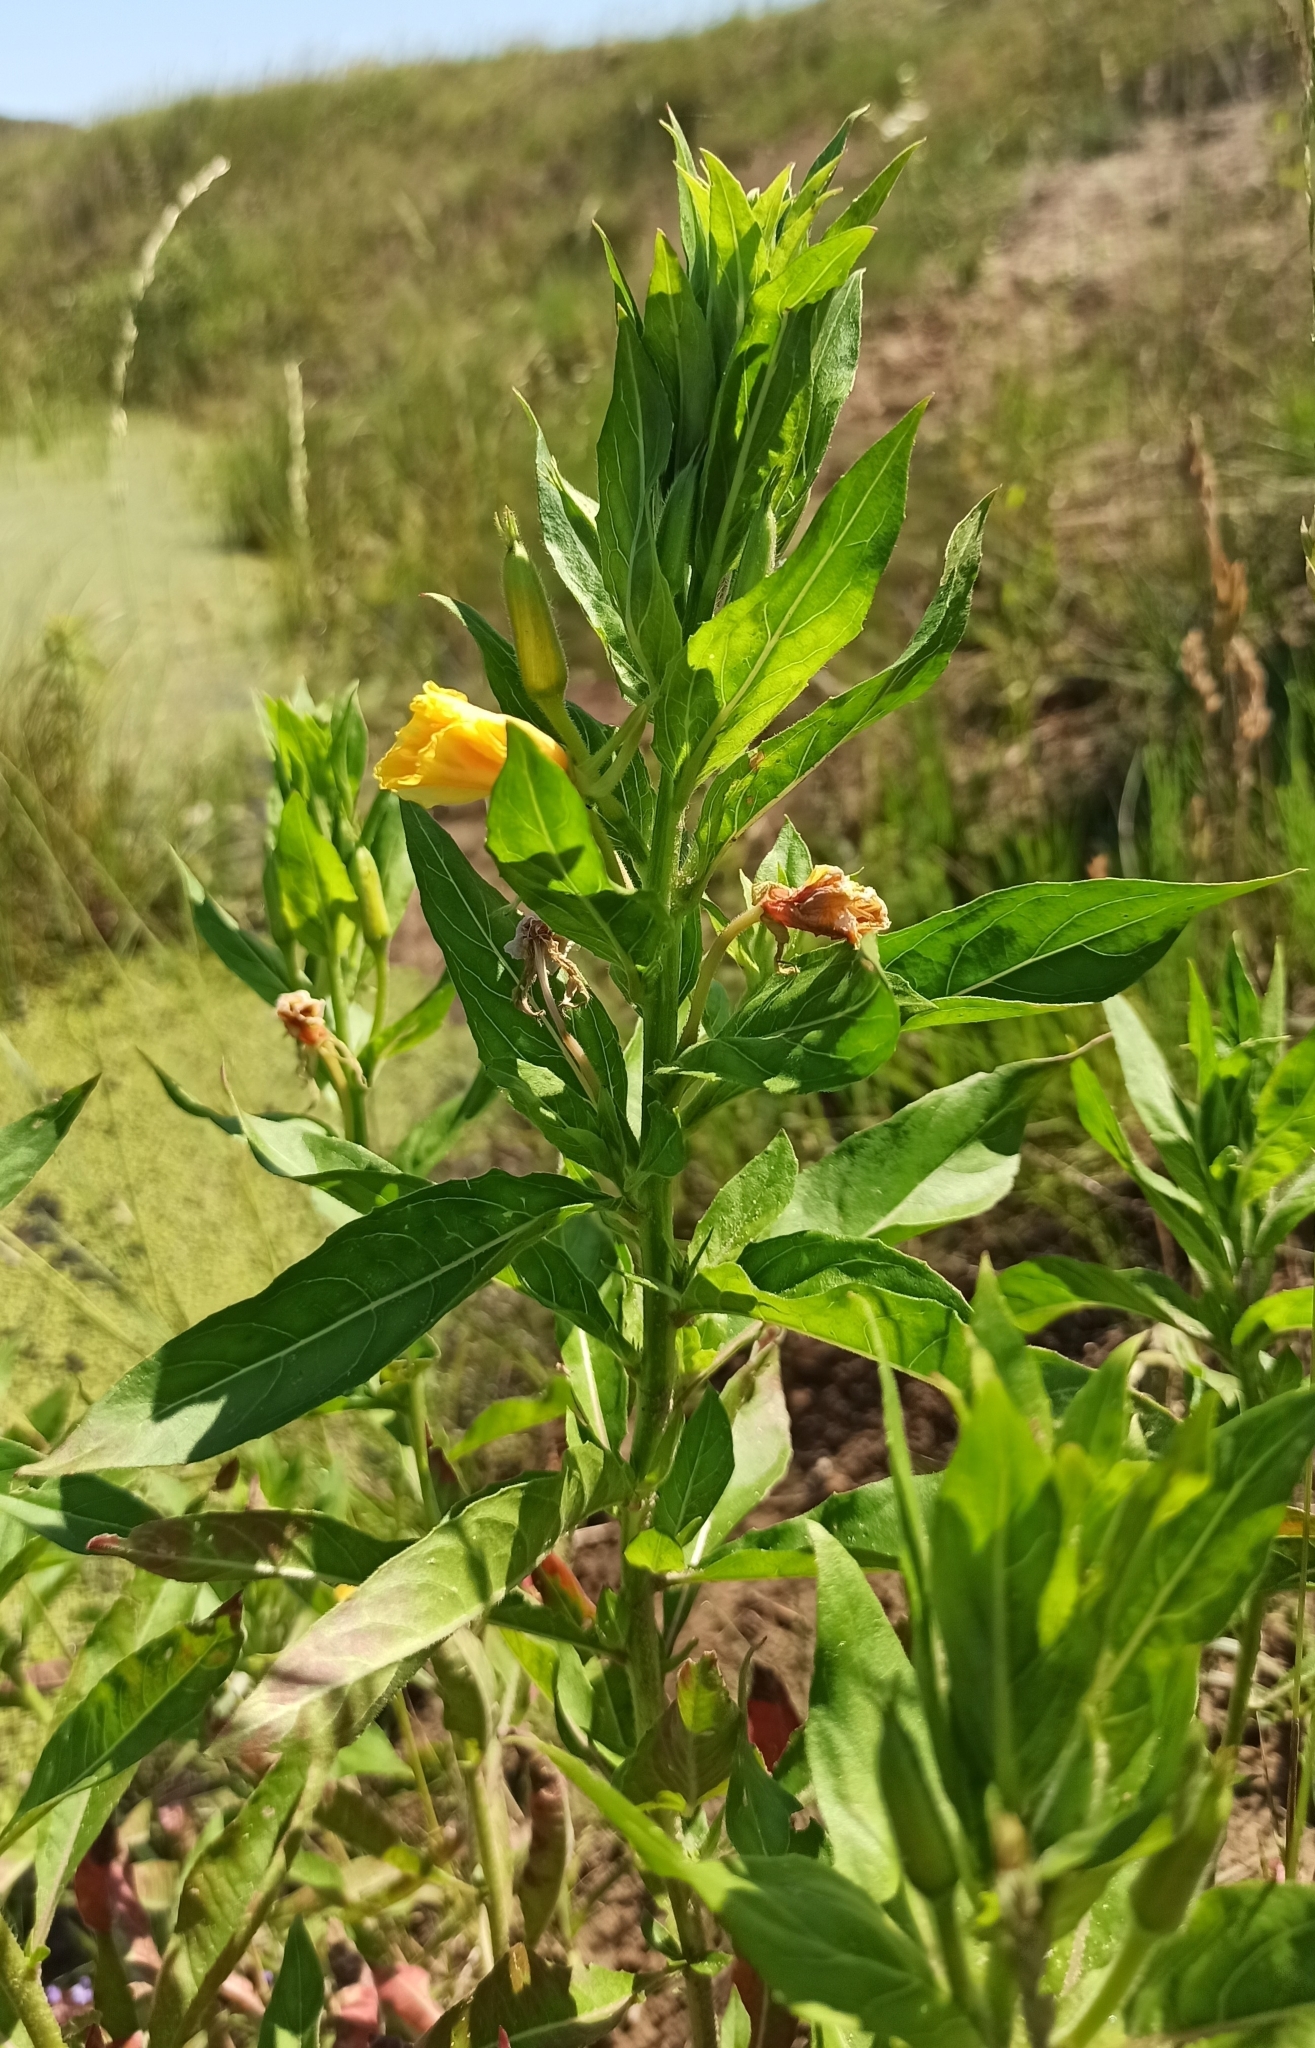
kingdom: Plantae
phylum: Tracheophyta
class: Magnoliopsida
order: Myrtales
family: Onagraceae
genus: Oenothera
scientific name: Oenothera biennis
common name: Common evening-primrose
